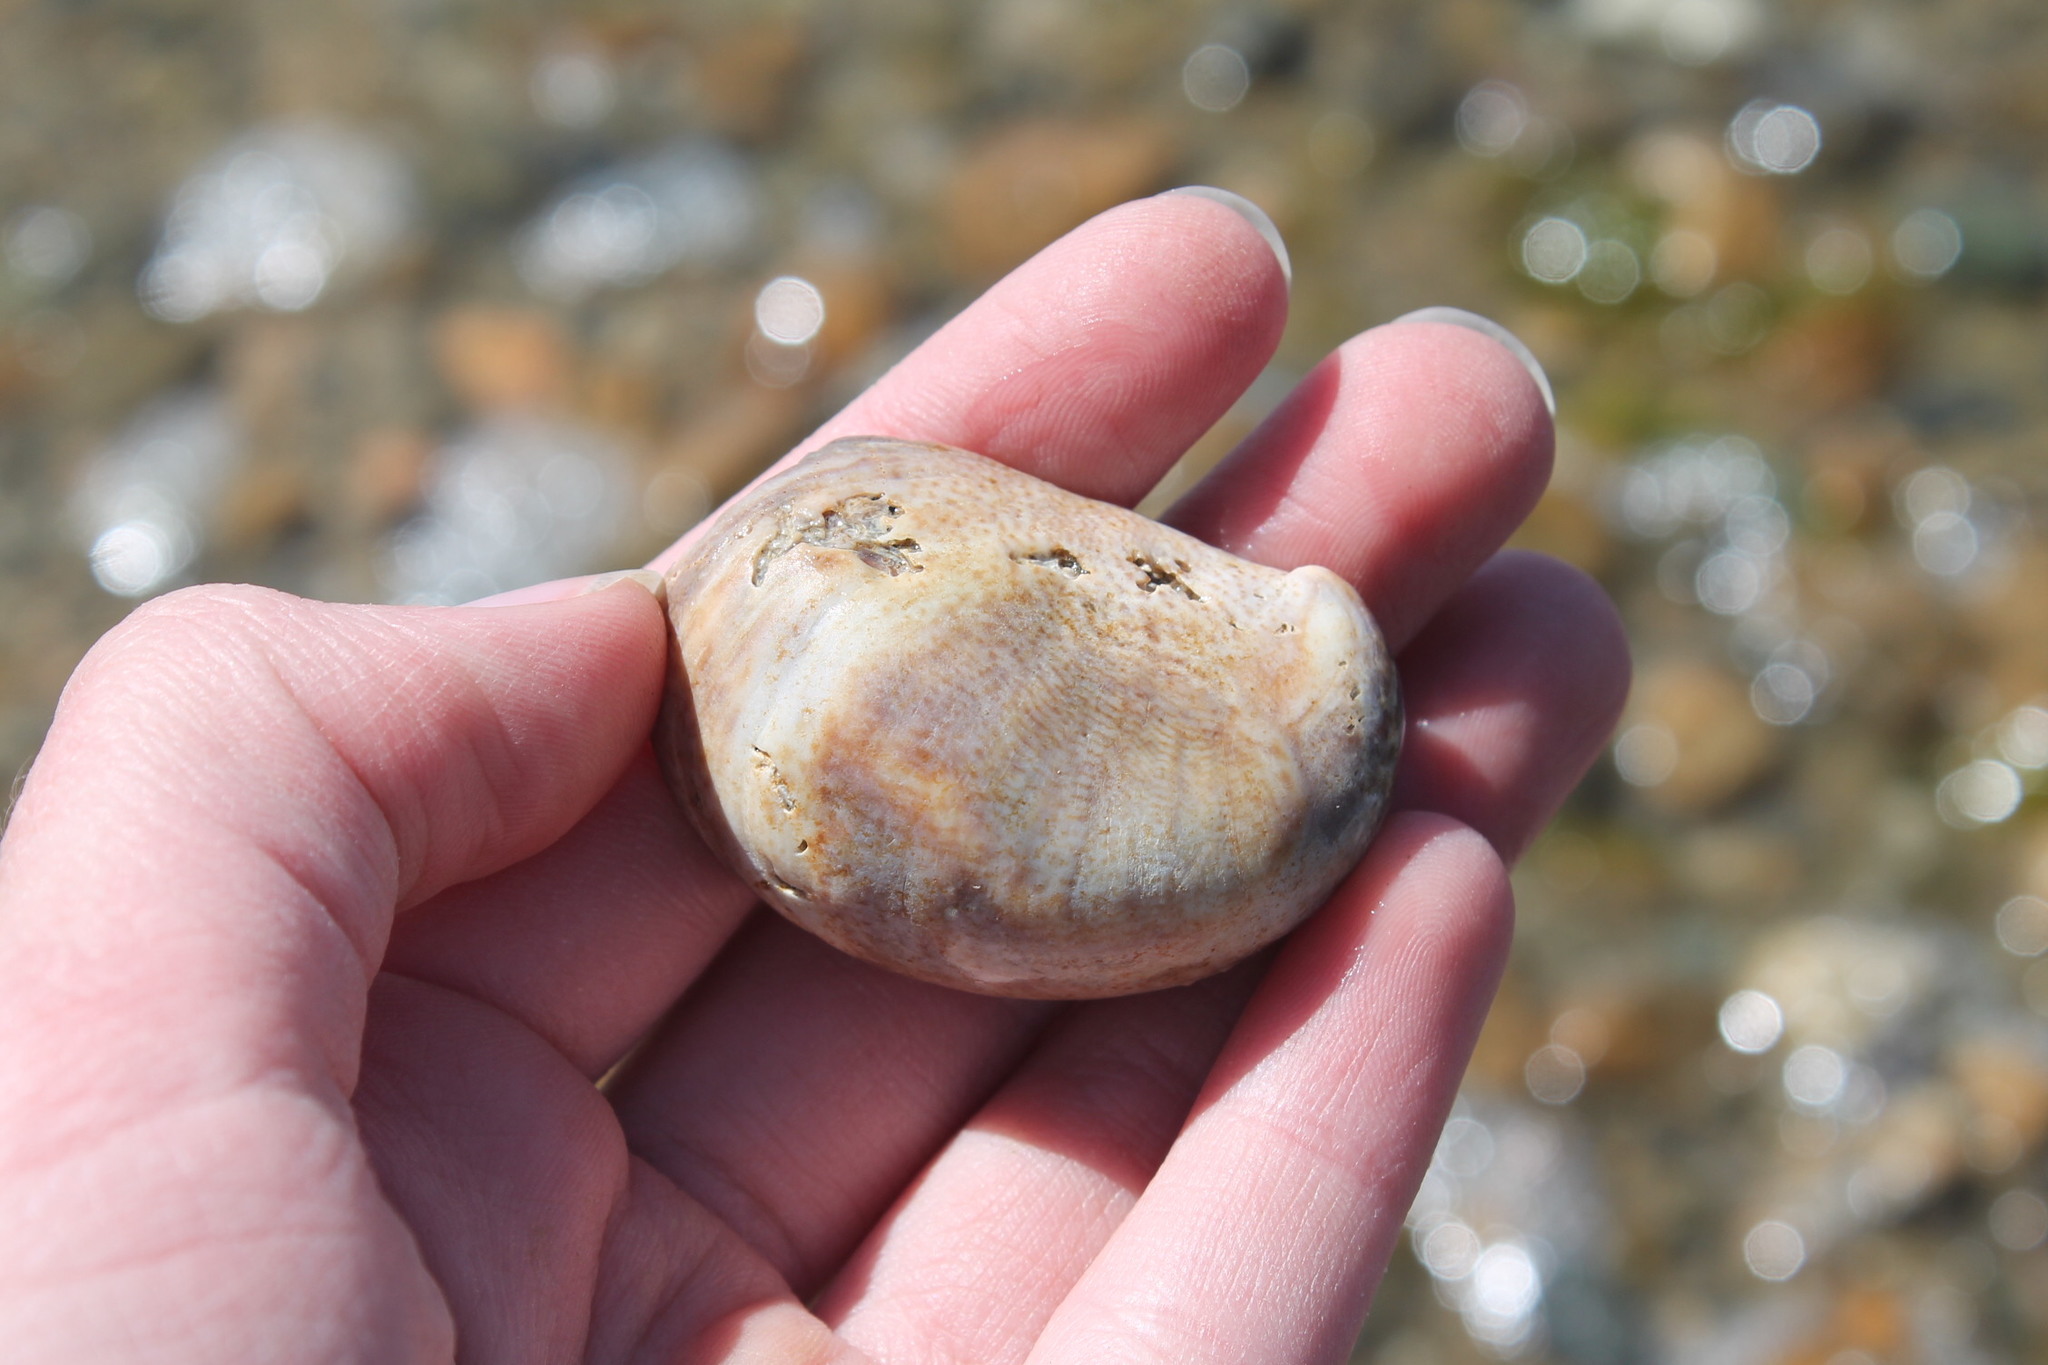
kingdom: Animalia
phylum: Mollusca
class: Gastropoda
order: Littorinimorpha
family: Calyptraeidae
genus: Crepidula
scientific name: Crepidula fornicata
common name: Slipper limpet
